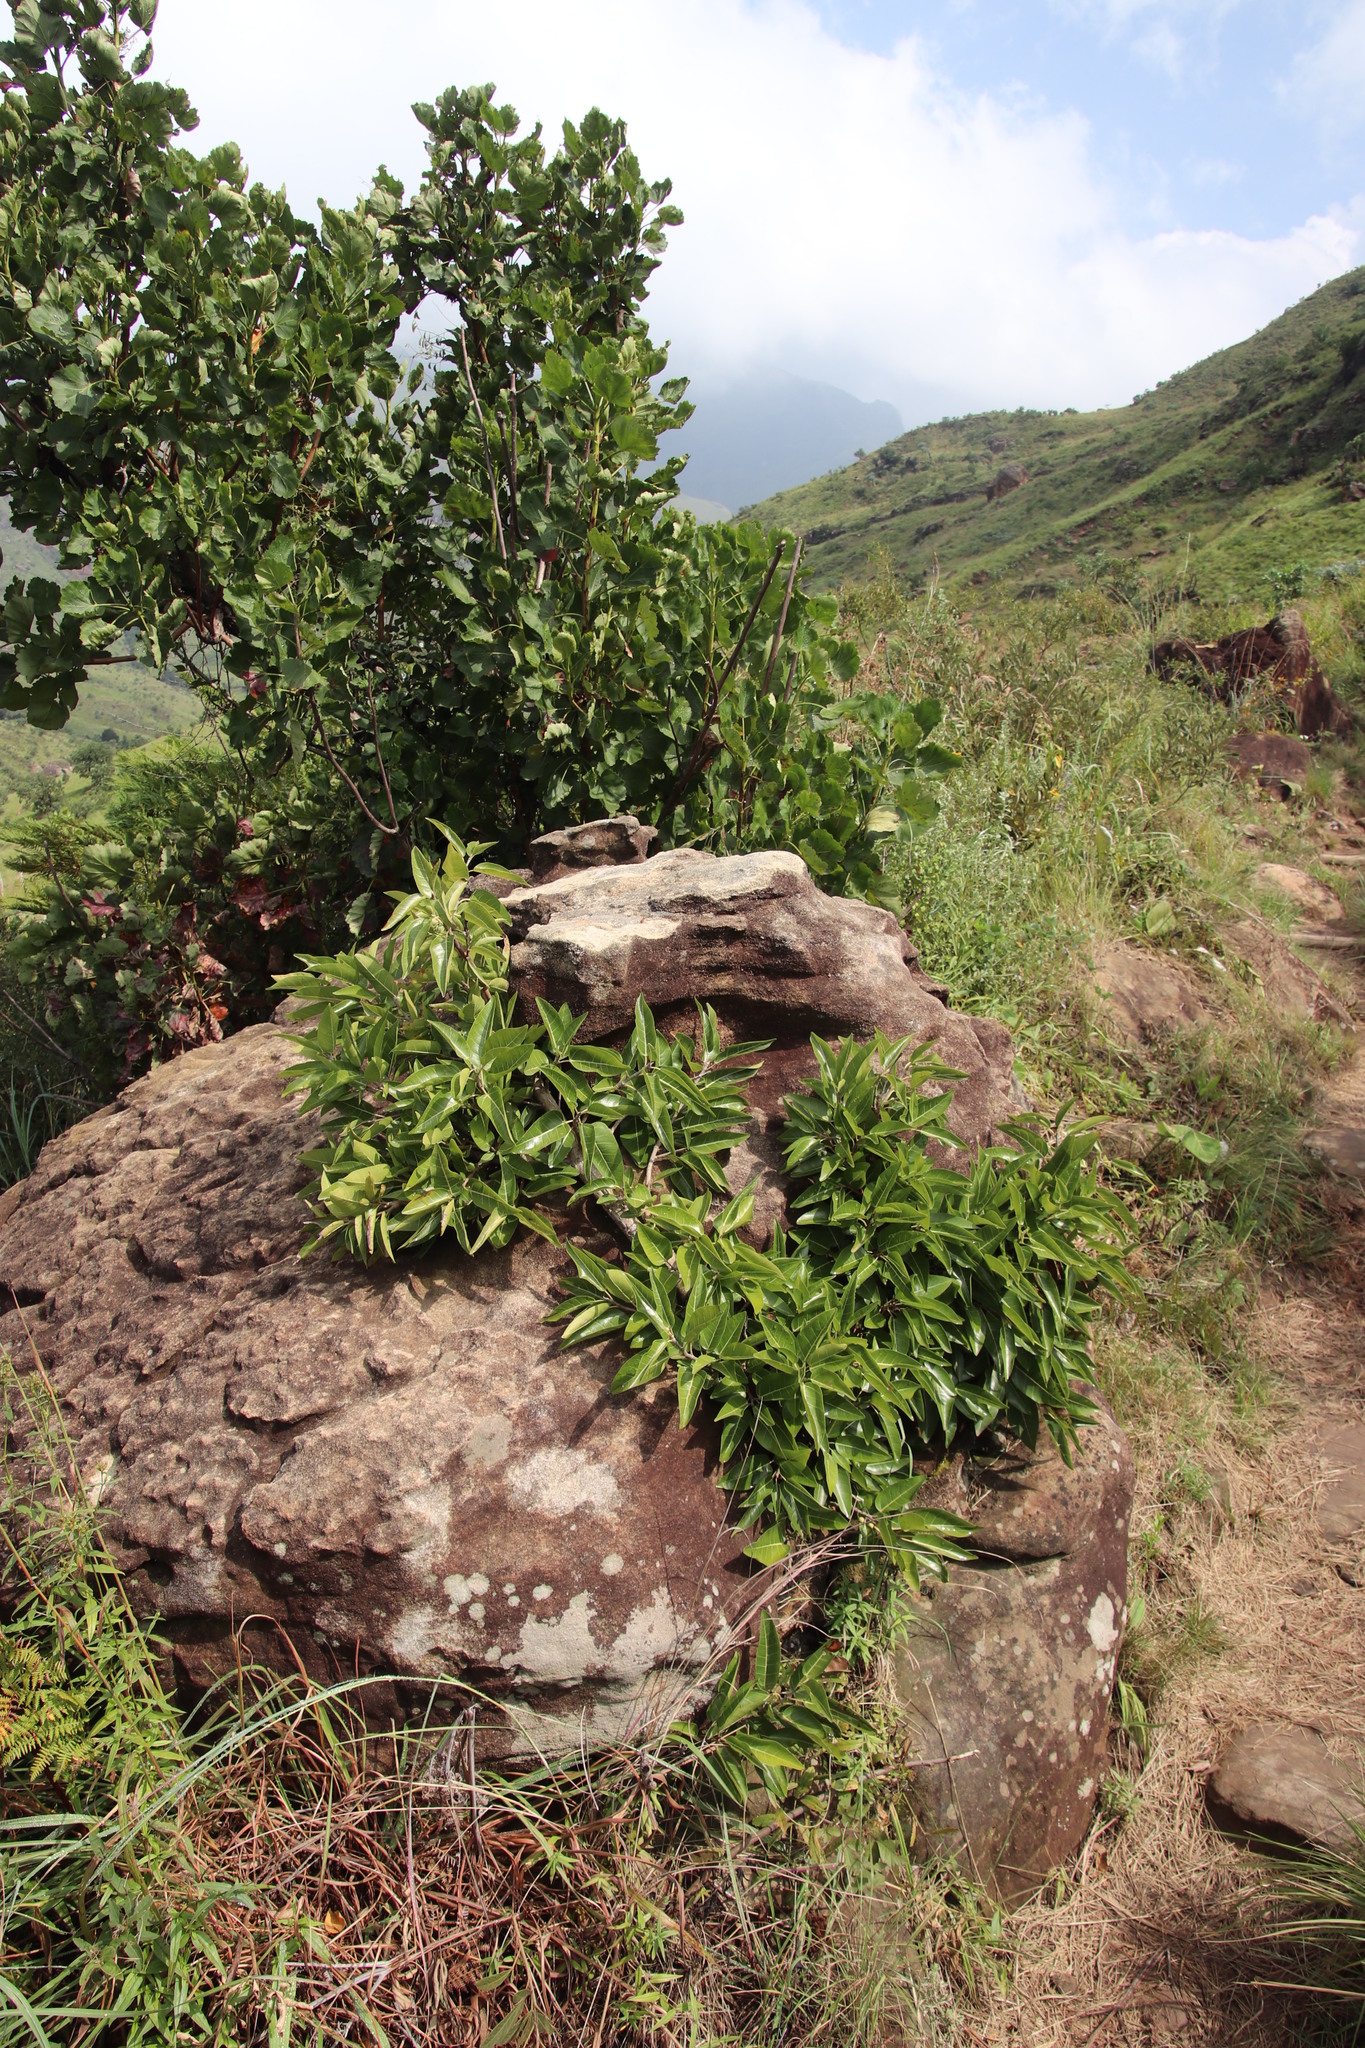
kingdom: Plantae
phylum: Tracheophyta
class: Magnoliopsida
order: Rosales
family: Moraceae
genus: Ficus
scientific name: Ficus ingens
